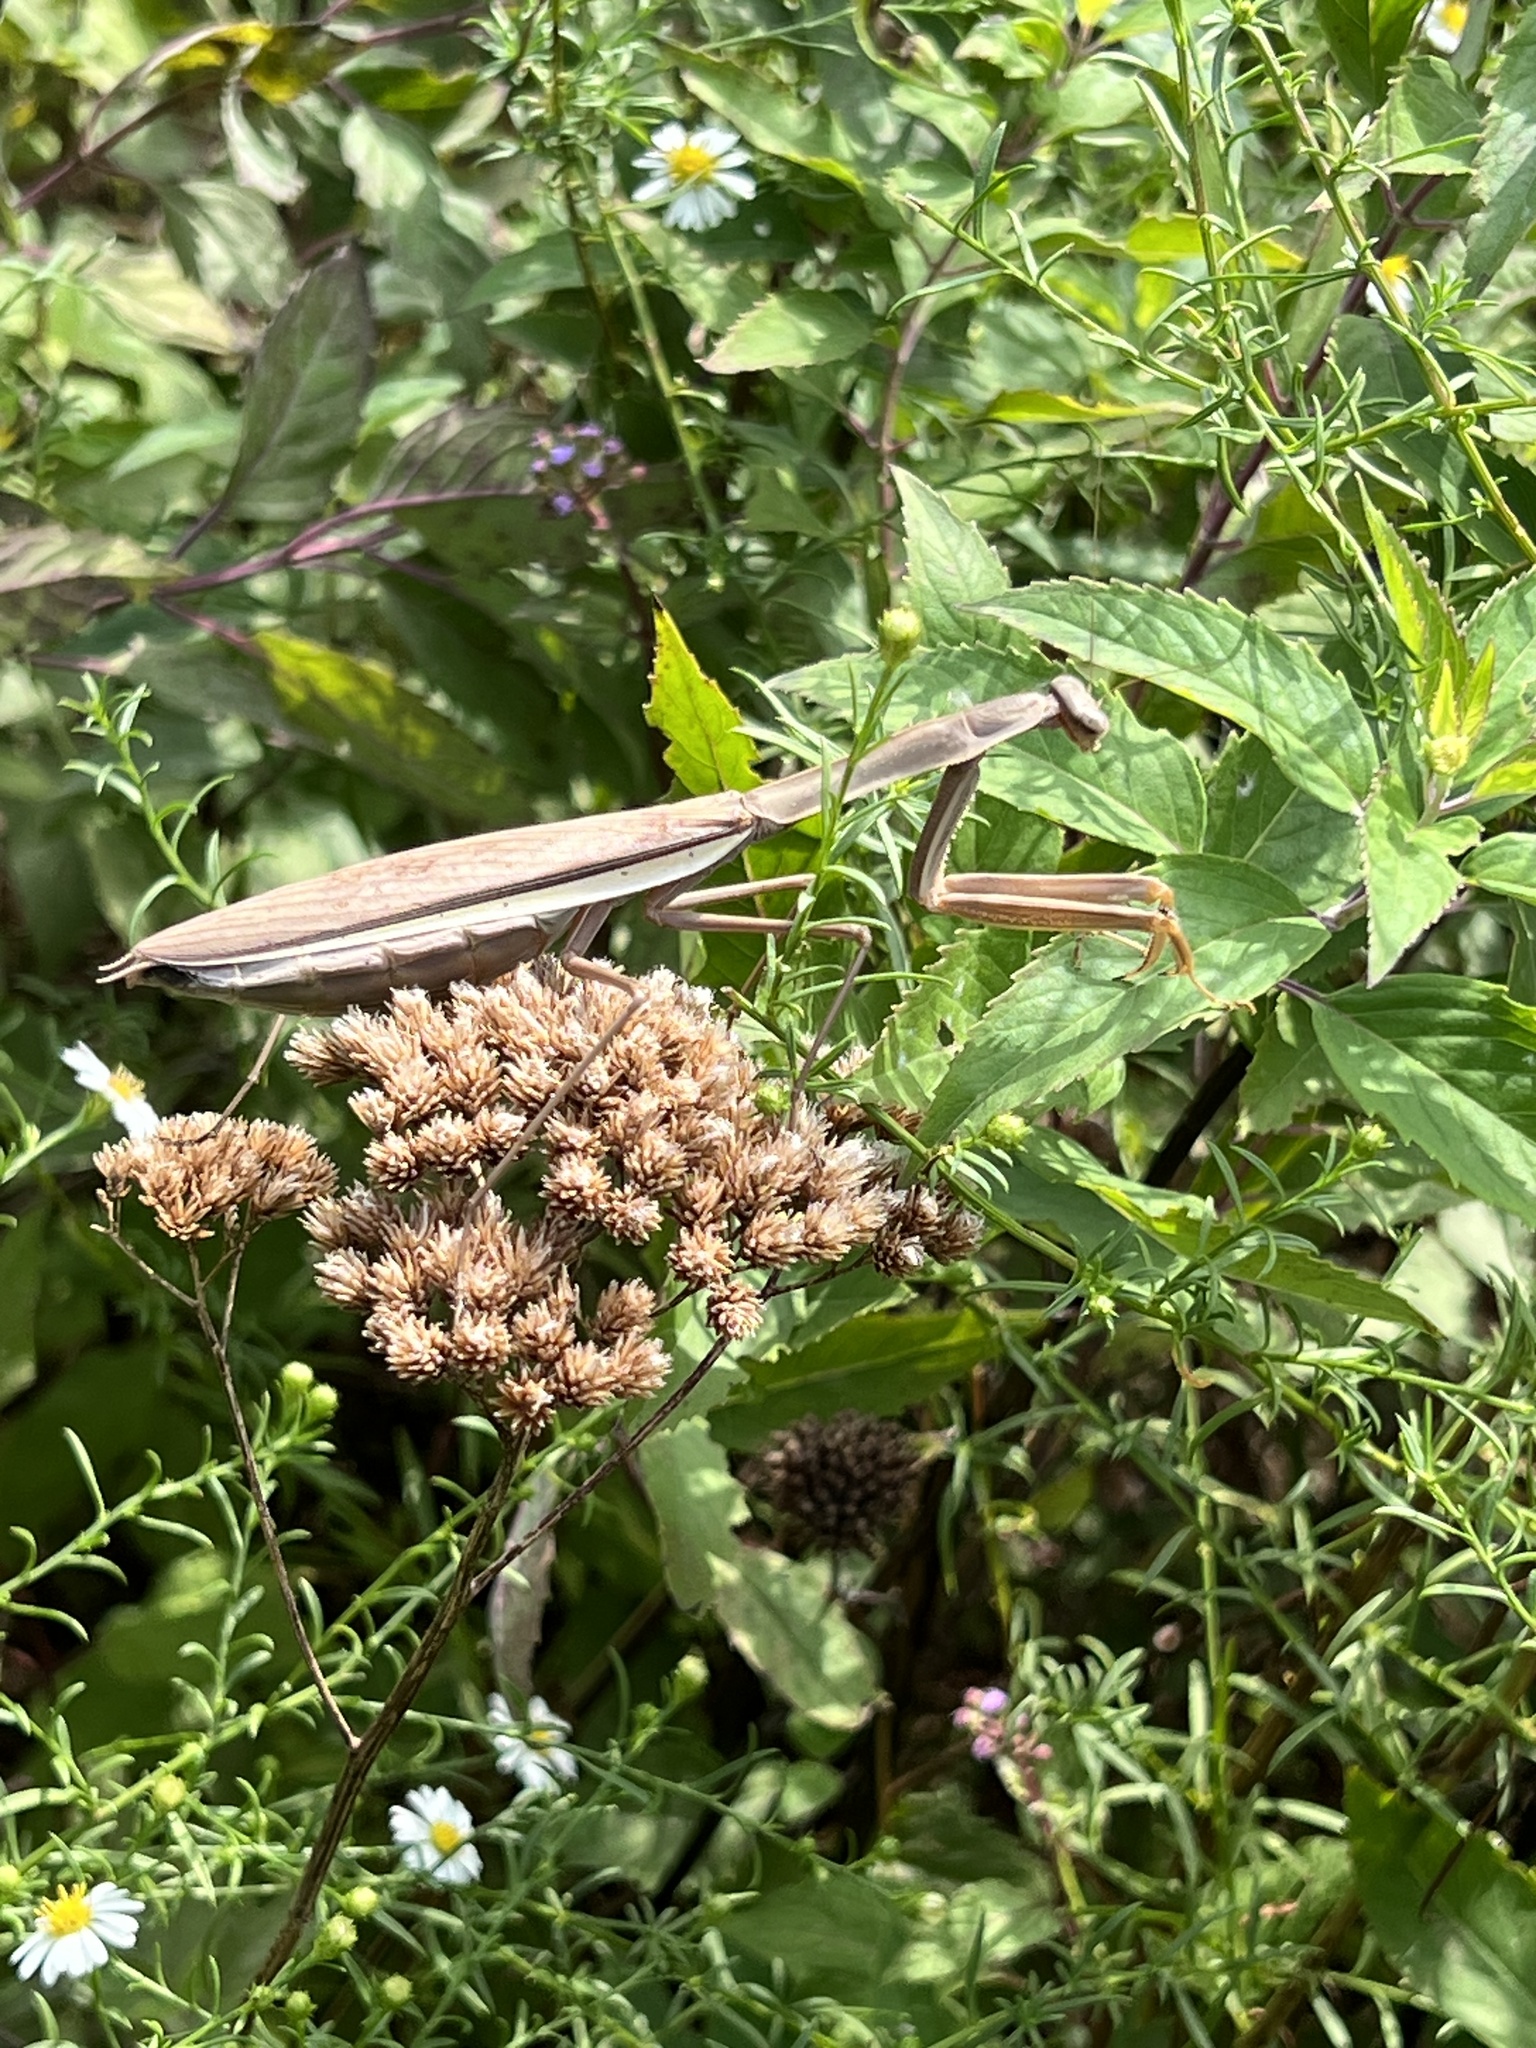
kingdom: Animalia
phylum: Arthropoda
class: Insecta
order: Mantodea
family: Mantidae
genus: Tenodera
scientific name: Tenodera sinensis
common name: Chinese mantis
